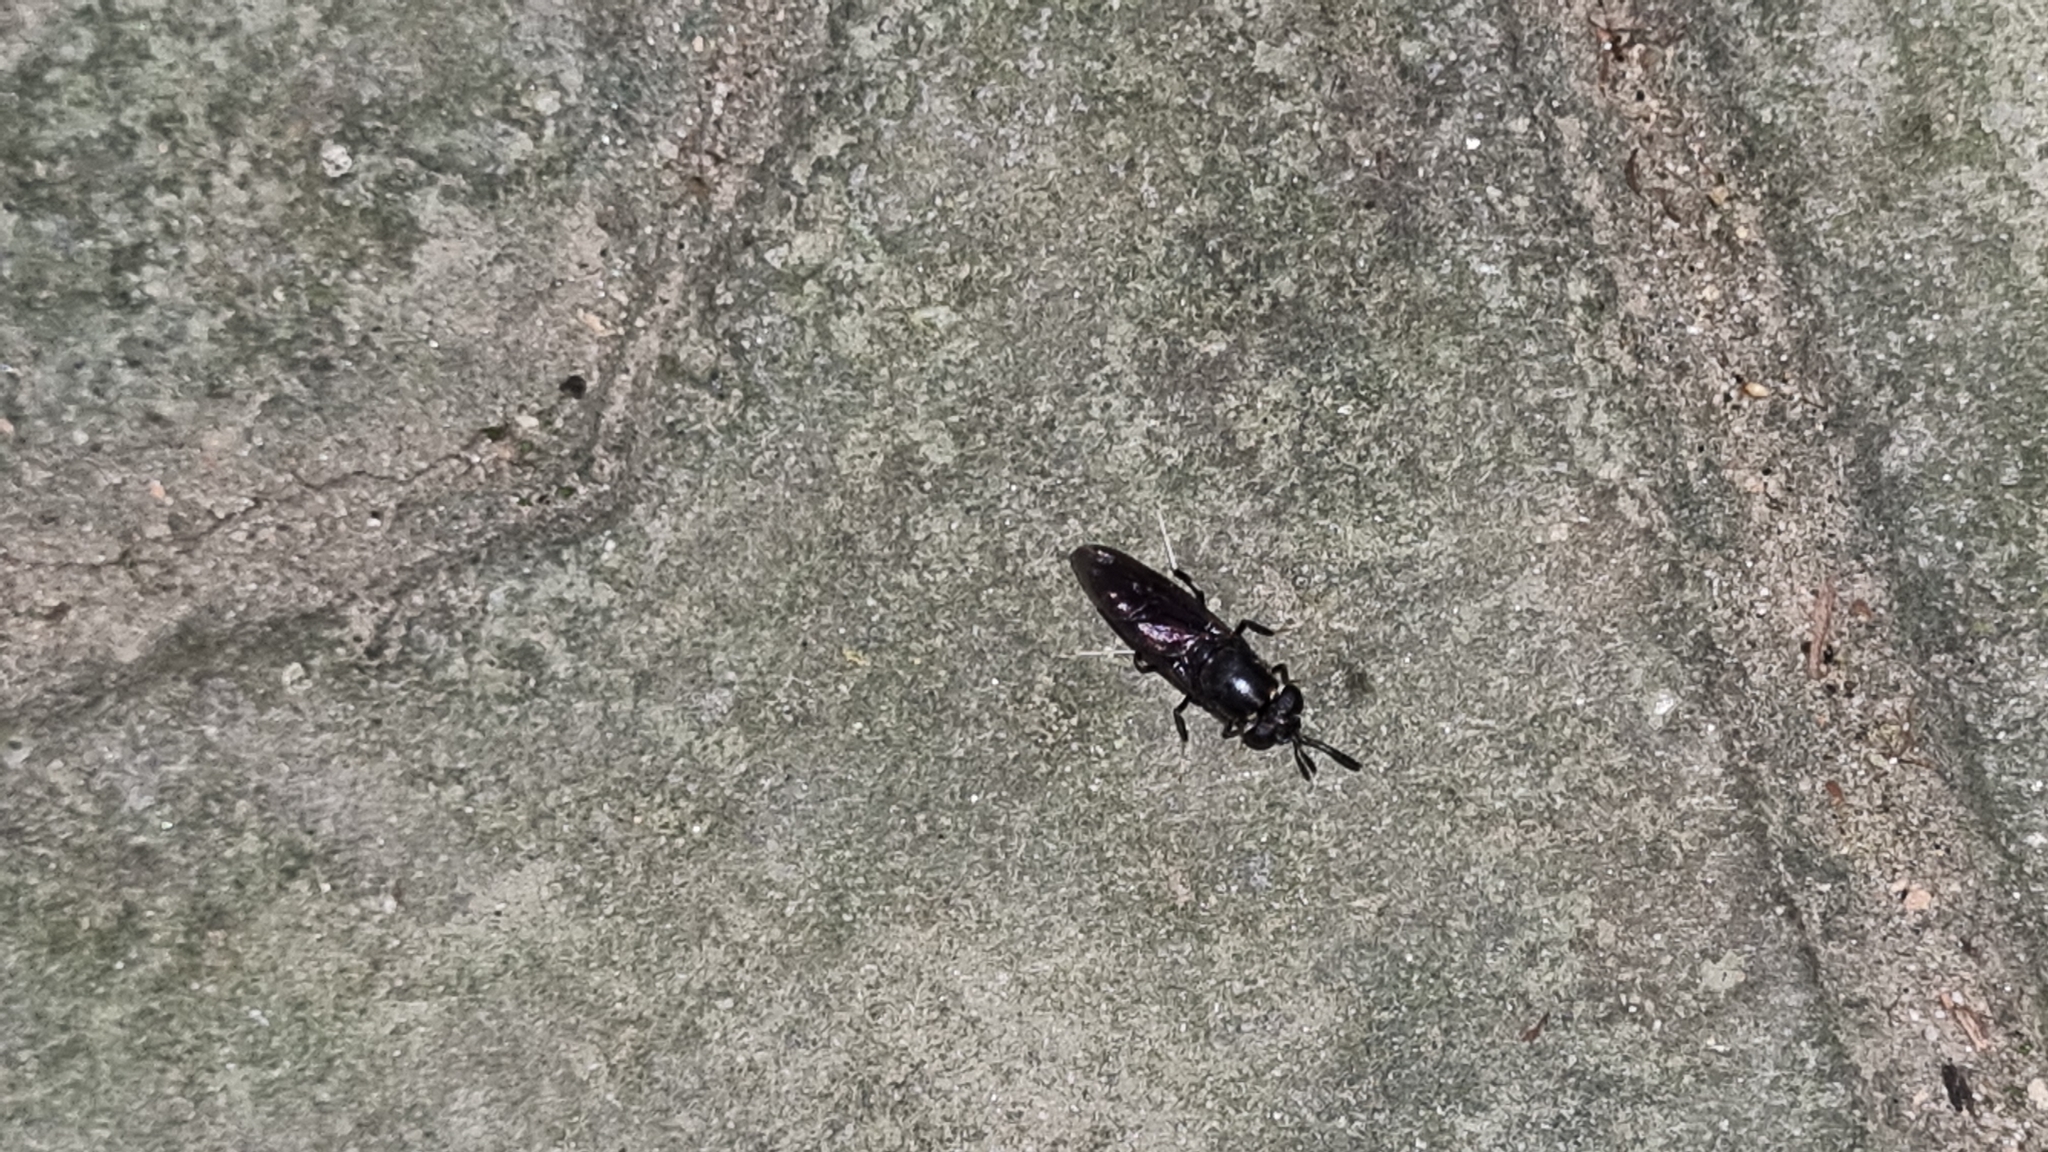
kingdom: Animalia
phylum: Arthropoda
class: Insecta
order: Diptera
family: Stratiomyidae
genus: Hermetia
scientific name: Hermetia illucens
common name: Black soldier fly
